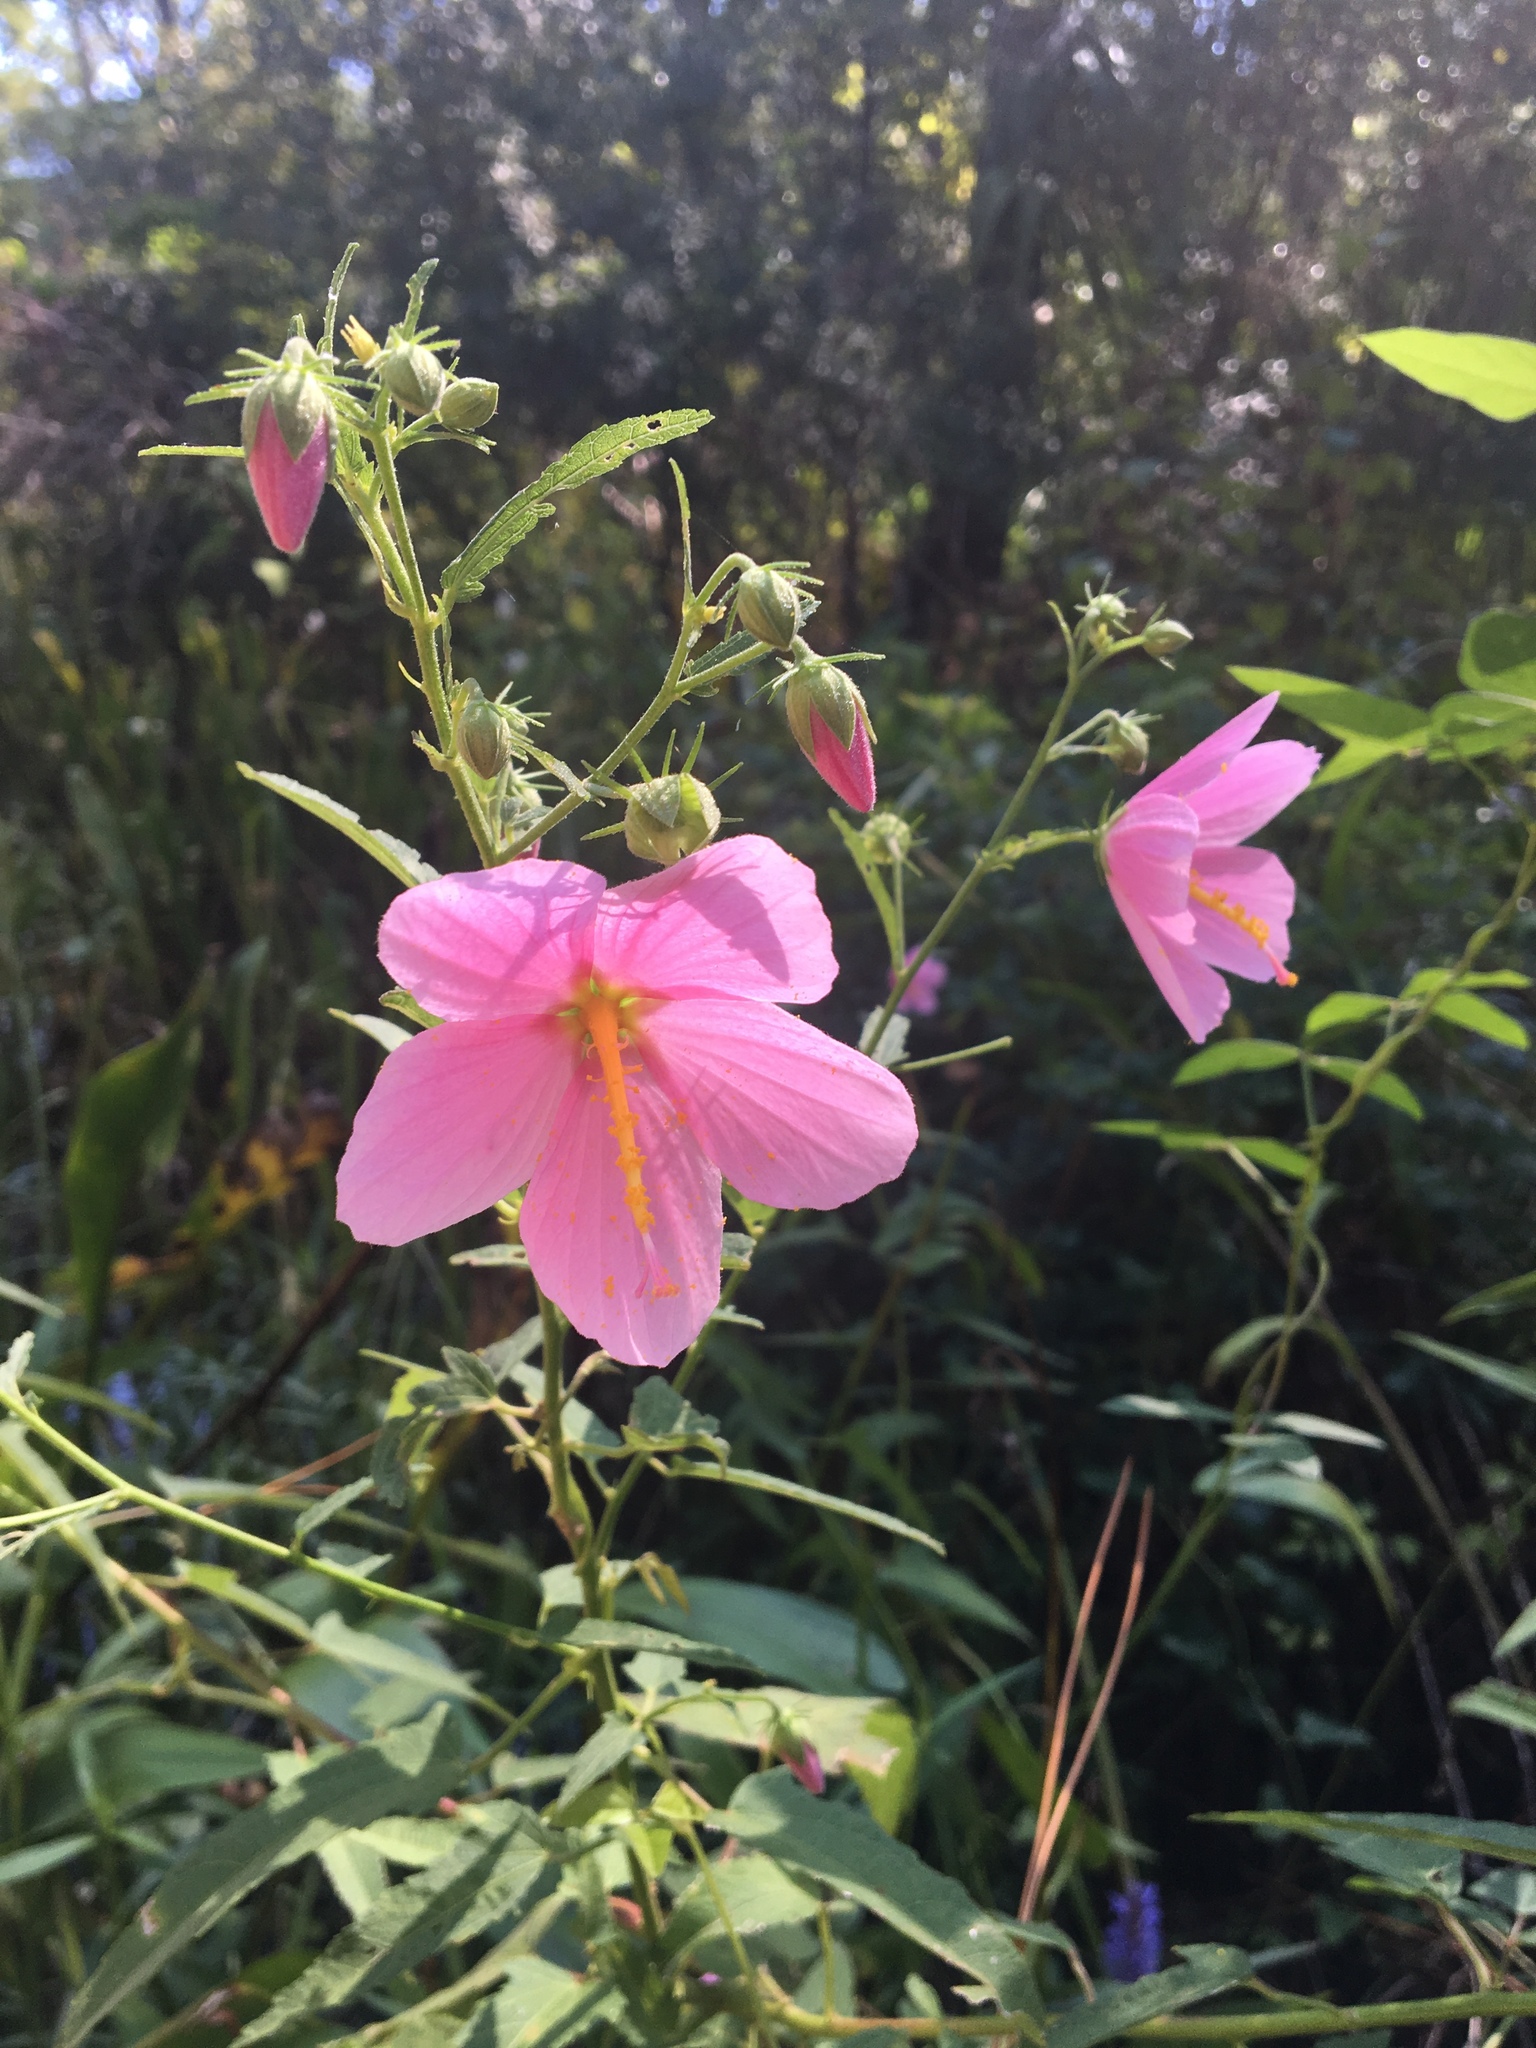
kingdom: Plantae
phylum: Tracheophyta
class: Magnoliopsida
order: Malvales
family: Malvaceae
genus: Kosteletzkya
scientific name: Kosteletzkya pentacarpos
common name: Virginia saltmarsh mallow
